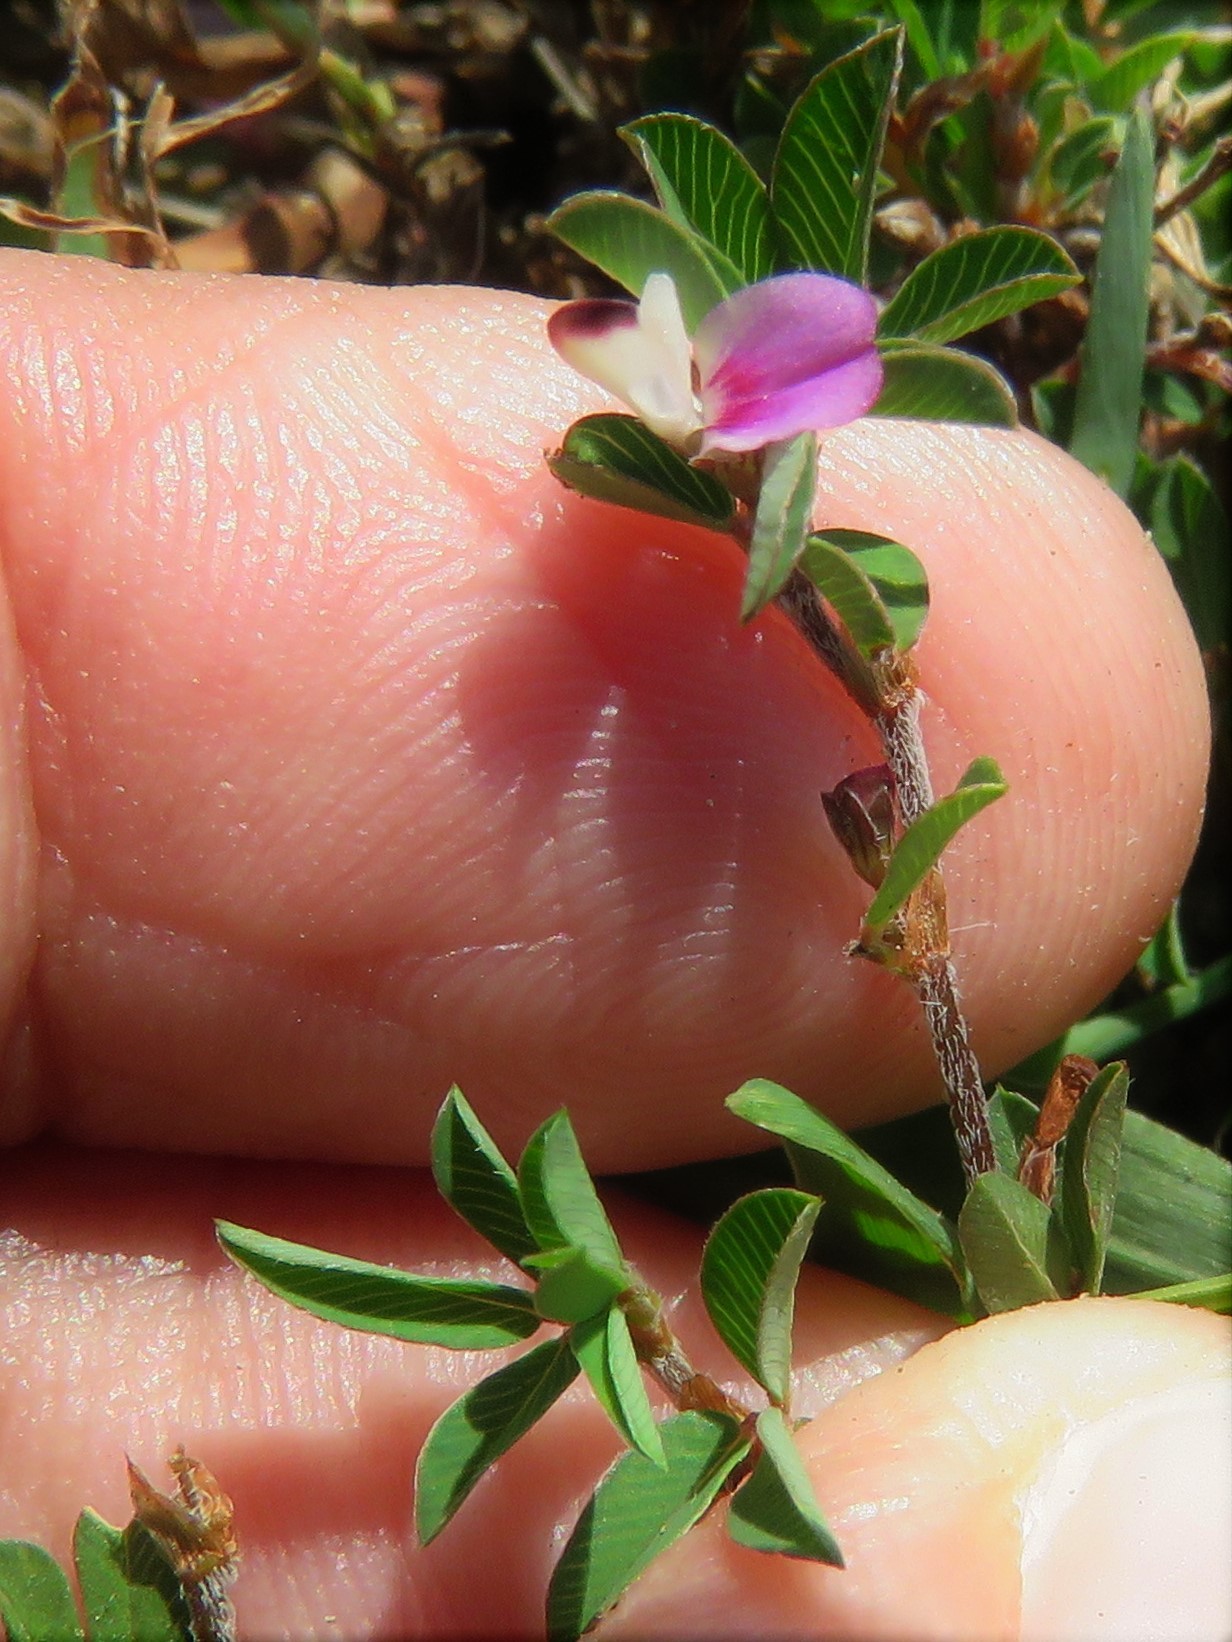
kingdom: Plantae
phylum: Tracheophyta
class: Magnoliopsida
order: Fabales
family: Fabaceae
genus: Kummerowia
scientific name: Kummerowia striata
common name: Japanese clover
